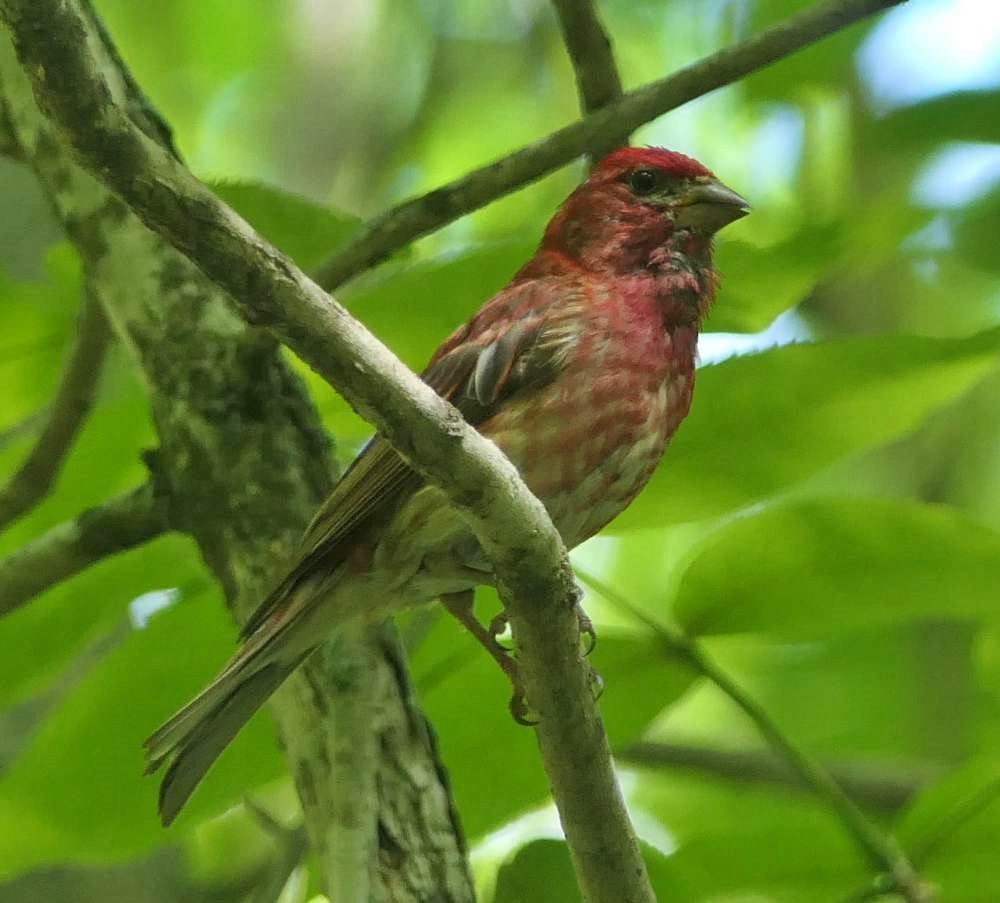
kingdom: Animalia
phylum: Chordata
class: Aves
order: Passeriformes
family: Fringillidae
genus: Haemorhous
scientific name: Haemorhous purpureus
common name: Purple finch
